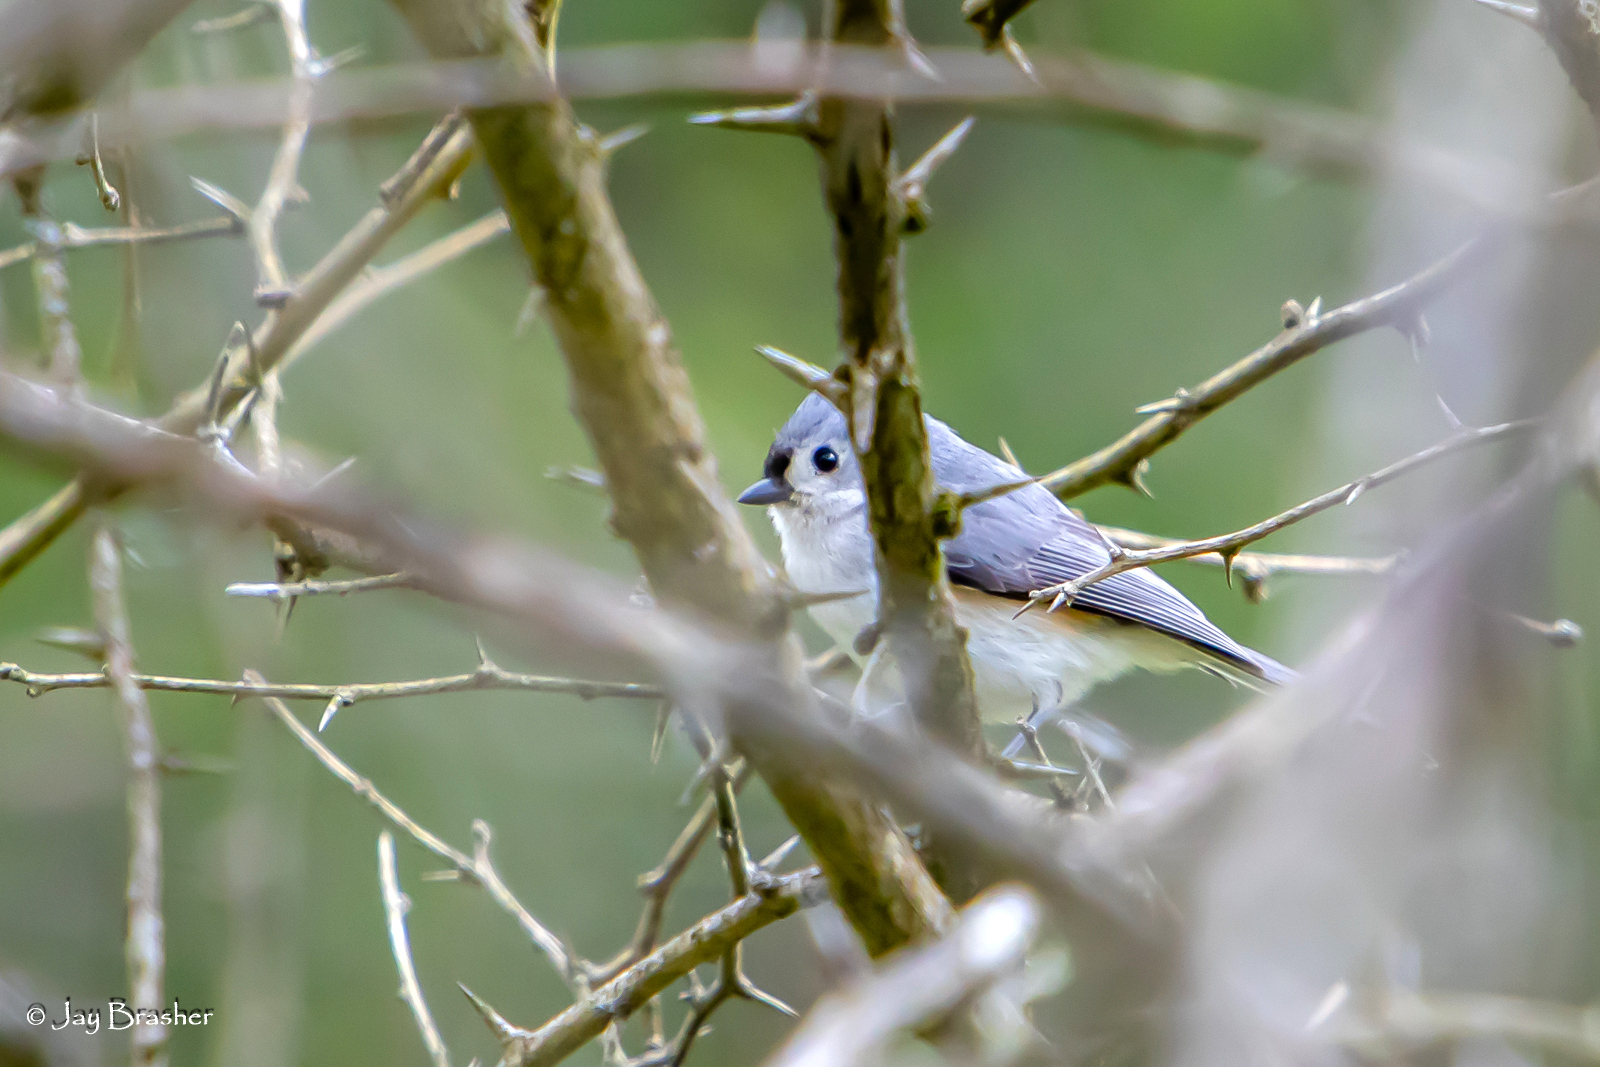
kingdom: Animalia
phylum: Chordata
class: Aves
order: Passeriformes
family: Paridae
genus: Baeolophus
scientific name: Baeolophus bicolor
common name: Tufted titmouse
